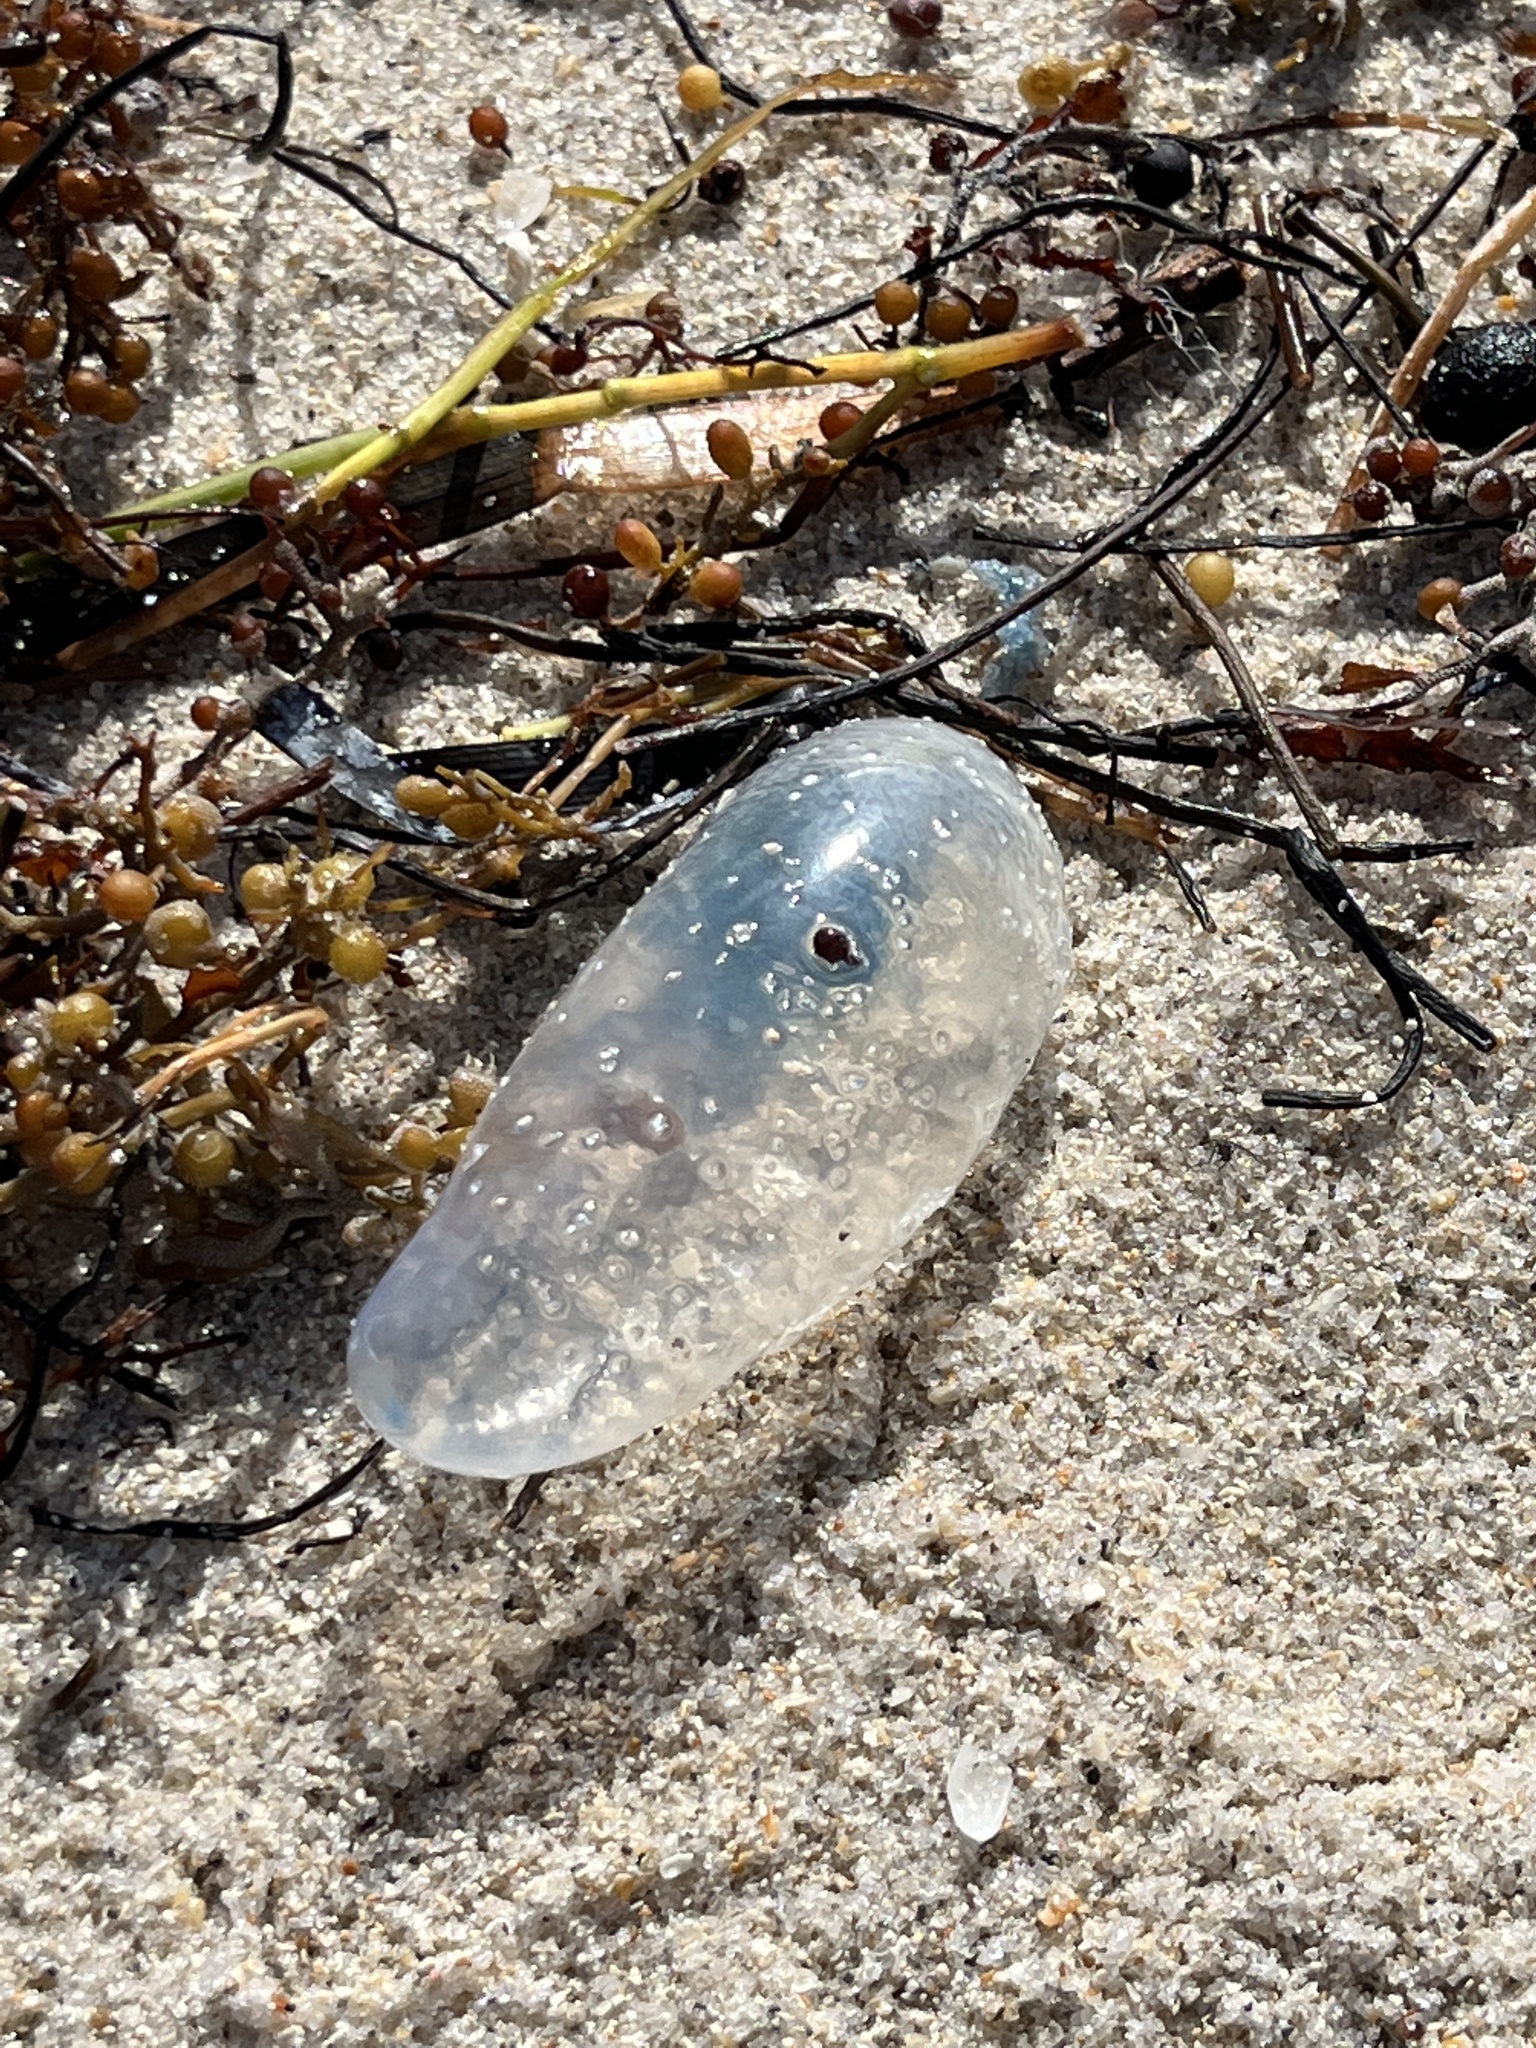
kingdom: Animalia
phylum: Cnidaria
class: Hydrozoa
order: Siphonophorae
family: Physaliidae
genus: Physalia
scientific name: Physalia physalis
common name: Portuguese man-of-war
